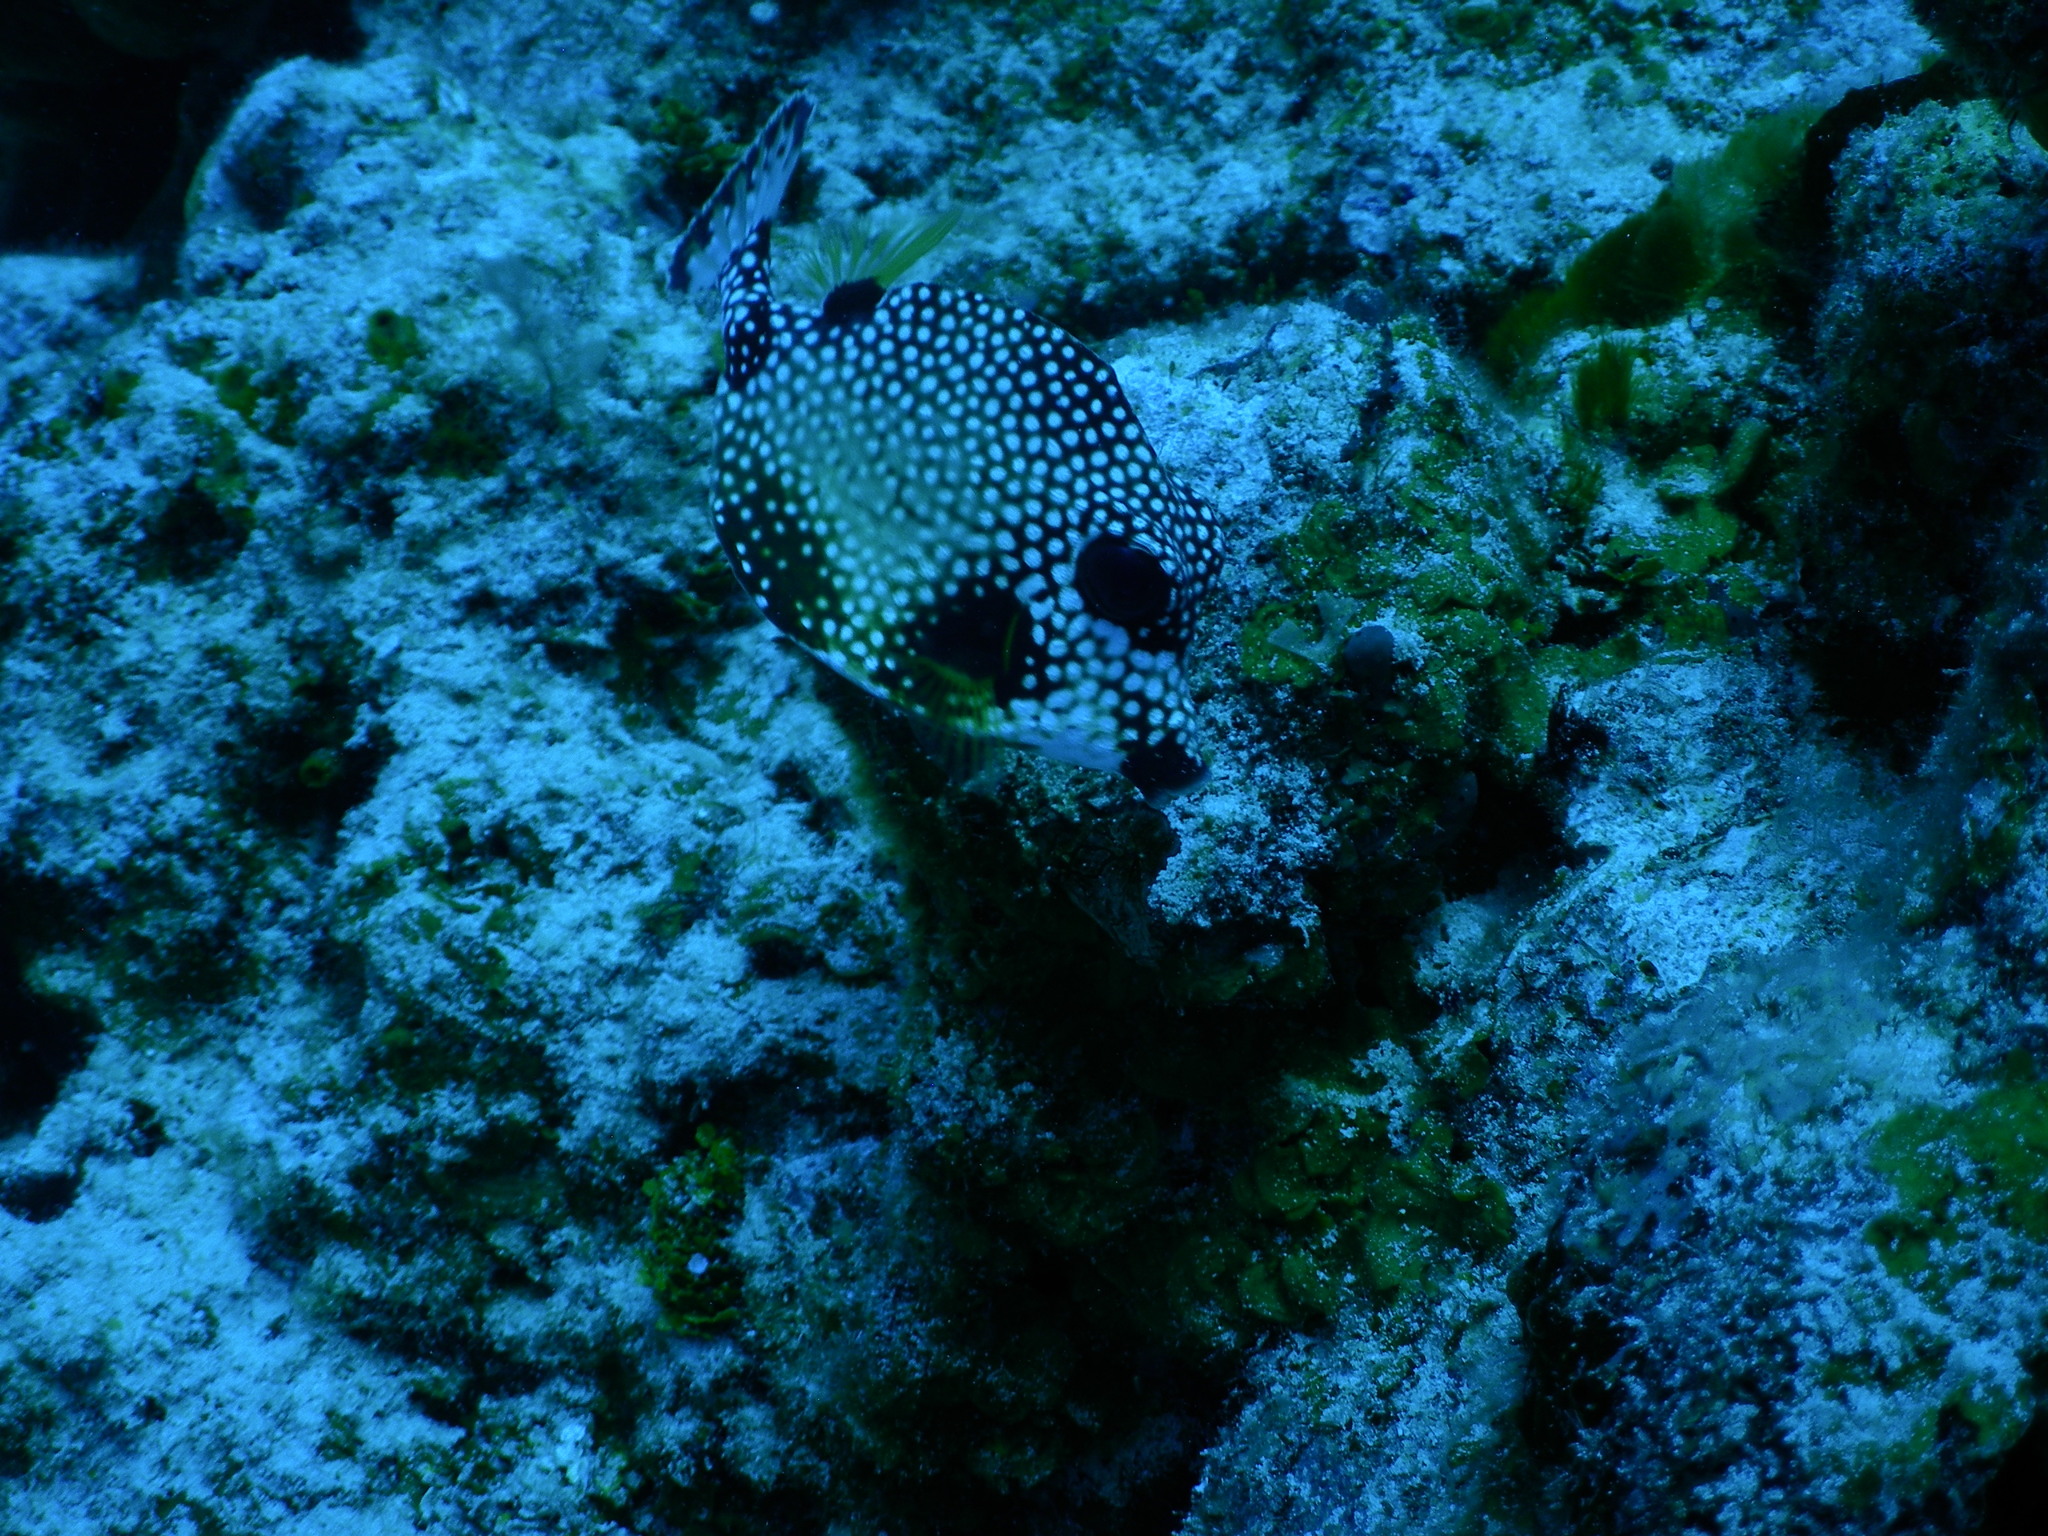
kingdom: Animalia
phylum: Chordata
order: Tetraodontiformes
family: Ostraciidae
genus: Lactophrys
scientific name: Lactophrys triqueter
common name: Smooth trunkfish
